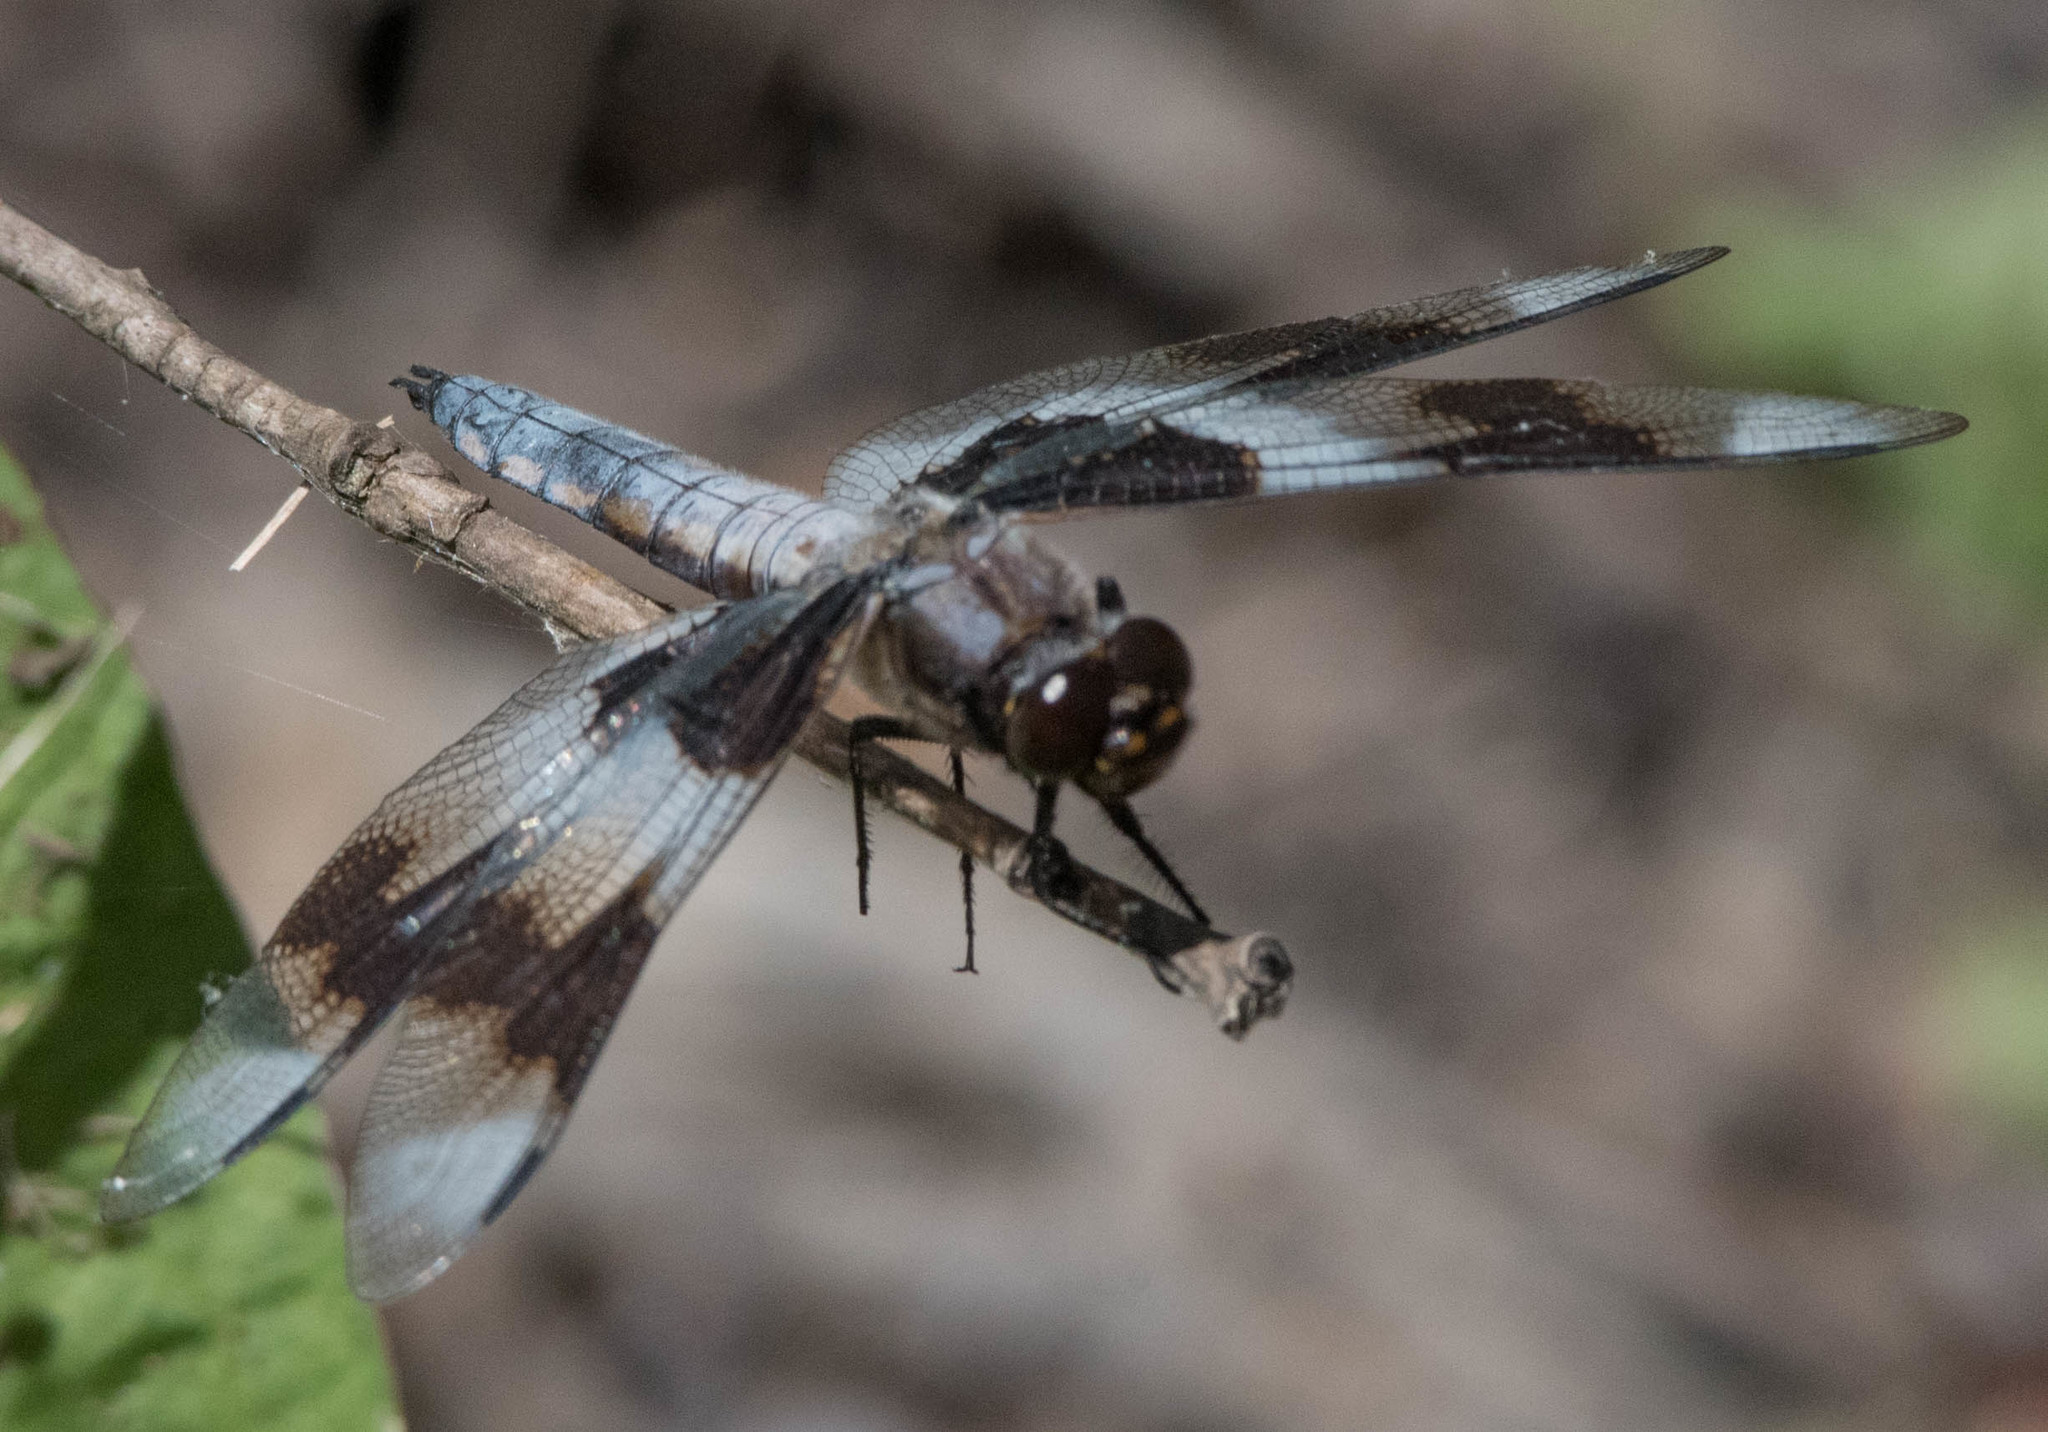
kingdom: Animalia
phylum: Arthropoda
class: Insecta
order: Odonata
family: Libellulidae
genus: Libellula
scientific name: Libellula forensis
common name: Eight-spotted skimmer
